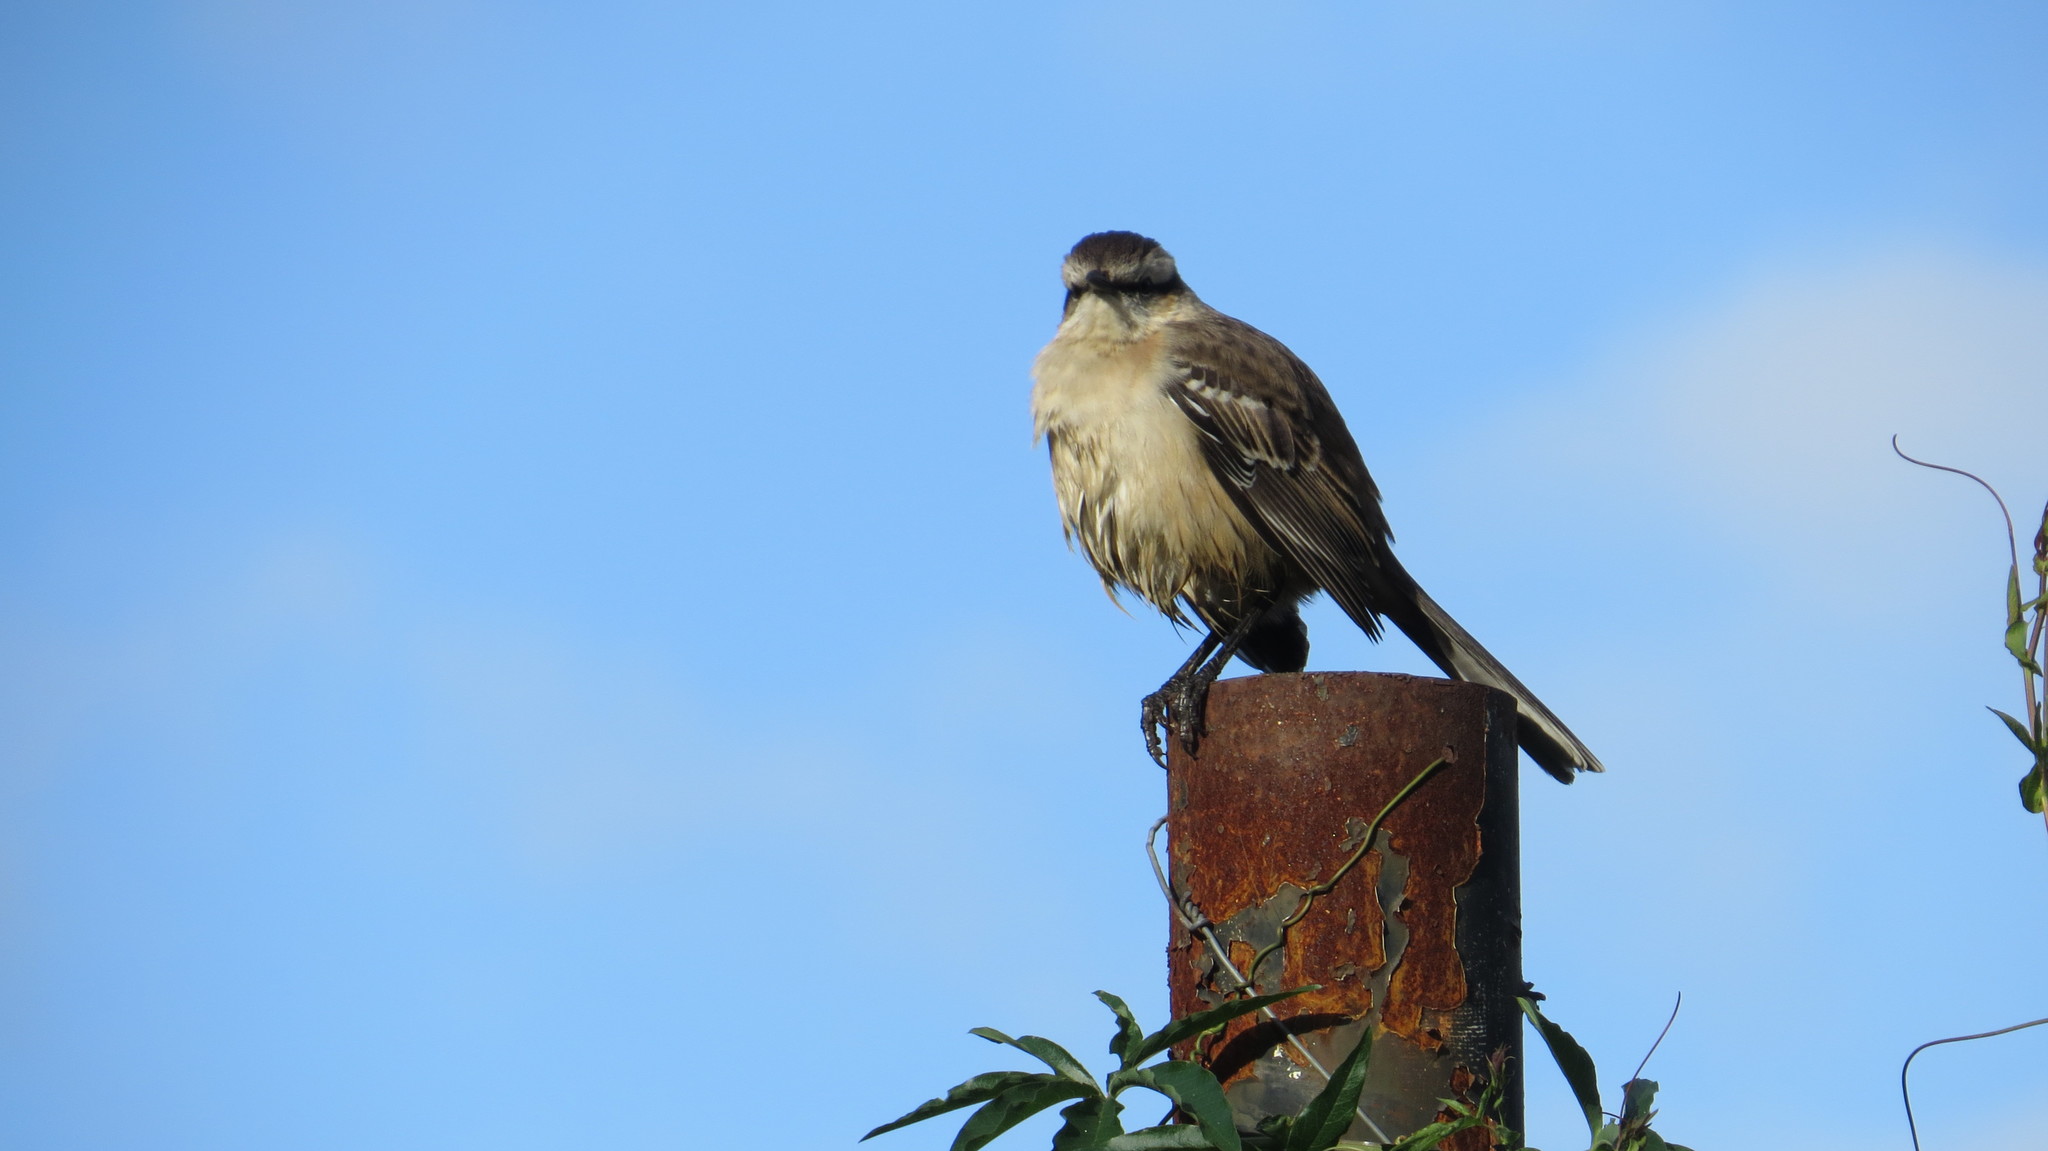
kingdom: Animalia
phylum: Chordata
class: Aves
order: Passeriformes
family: Mimidae
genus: Mimus
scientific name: Mimus saturninus
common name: Chalk-browed mockingbird
